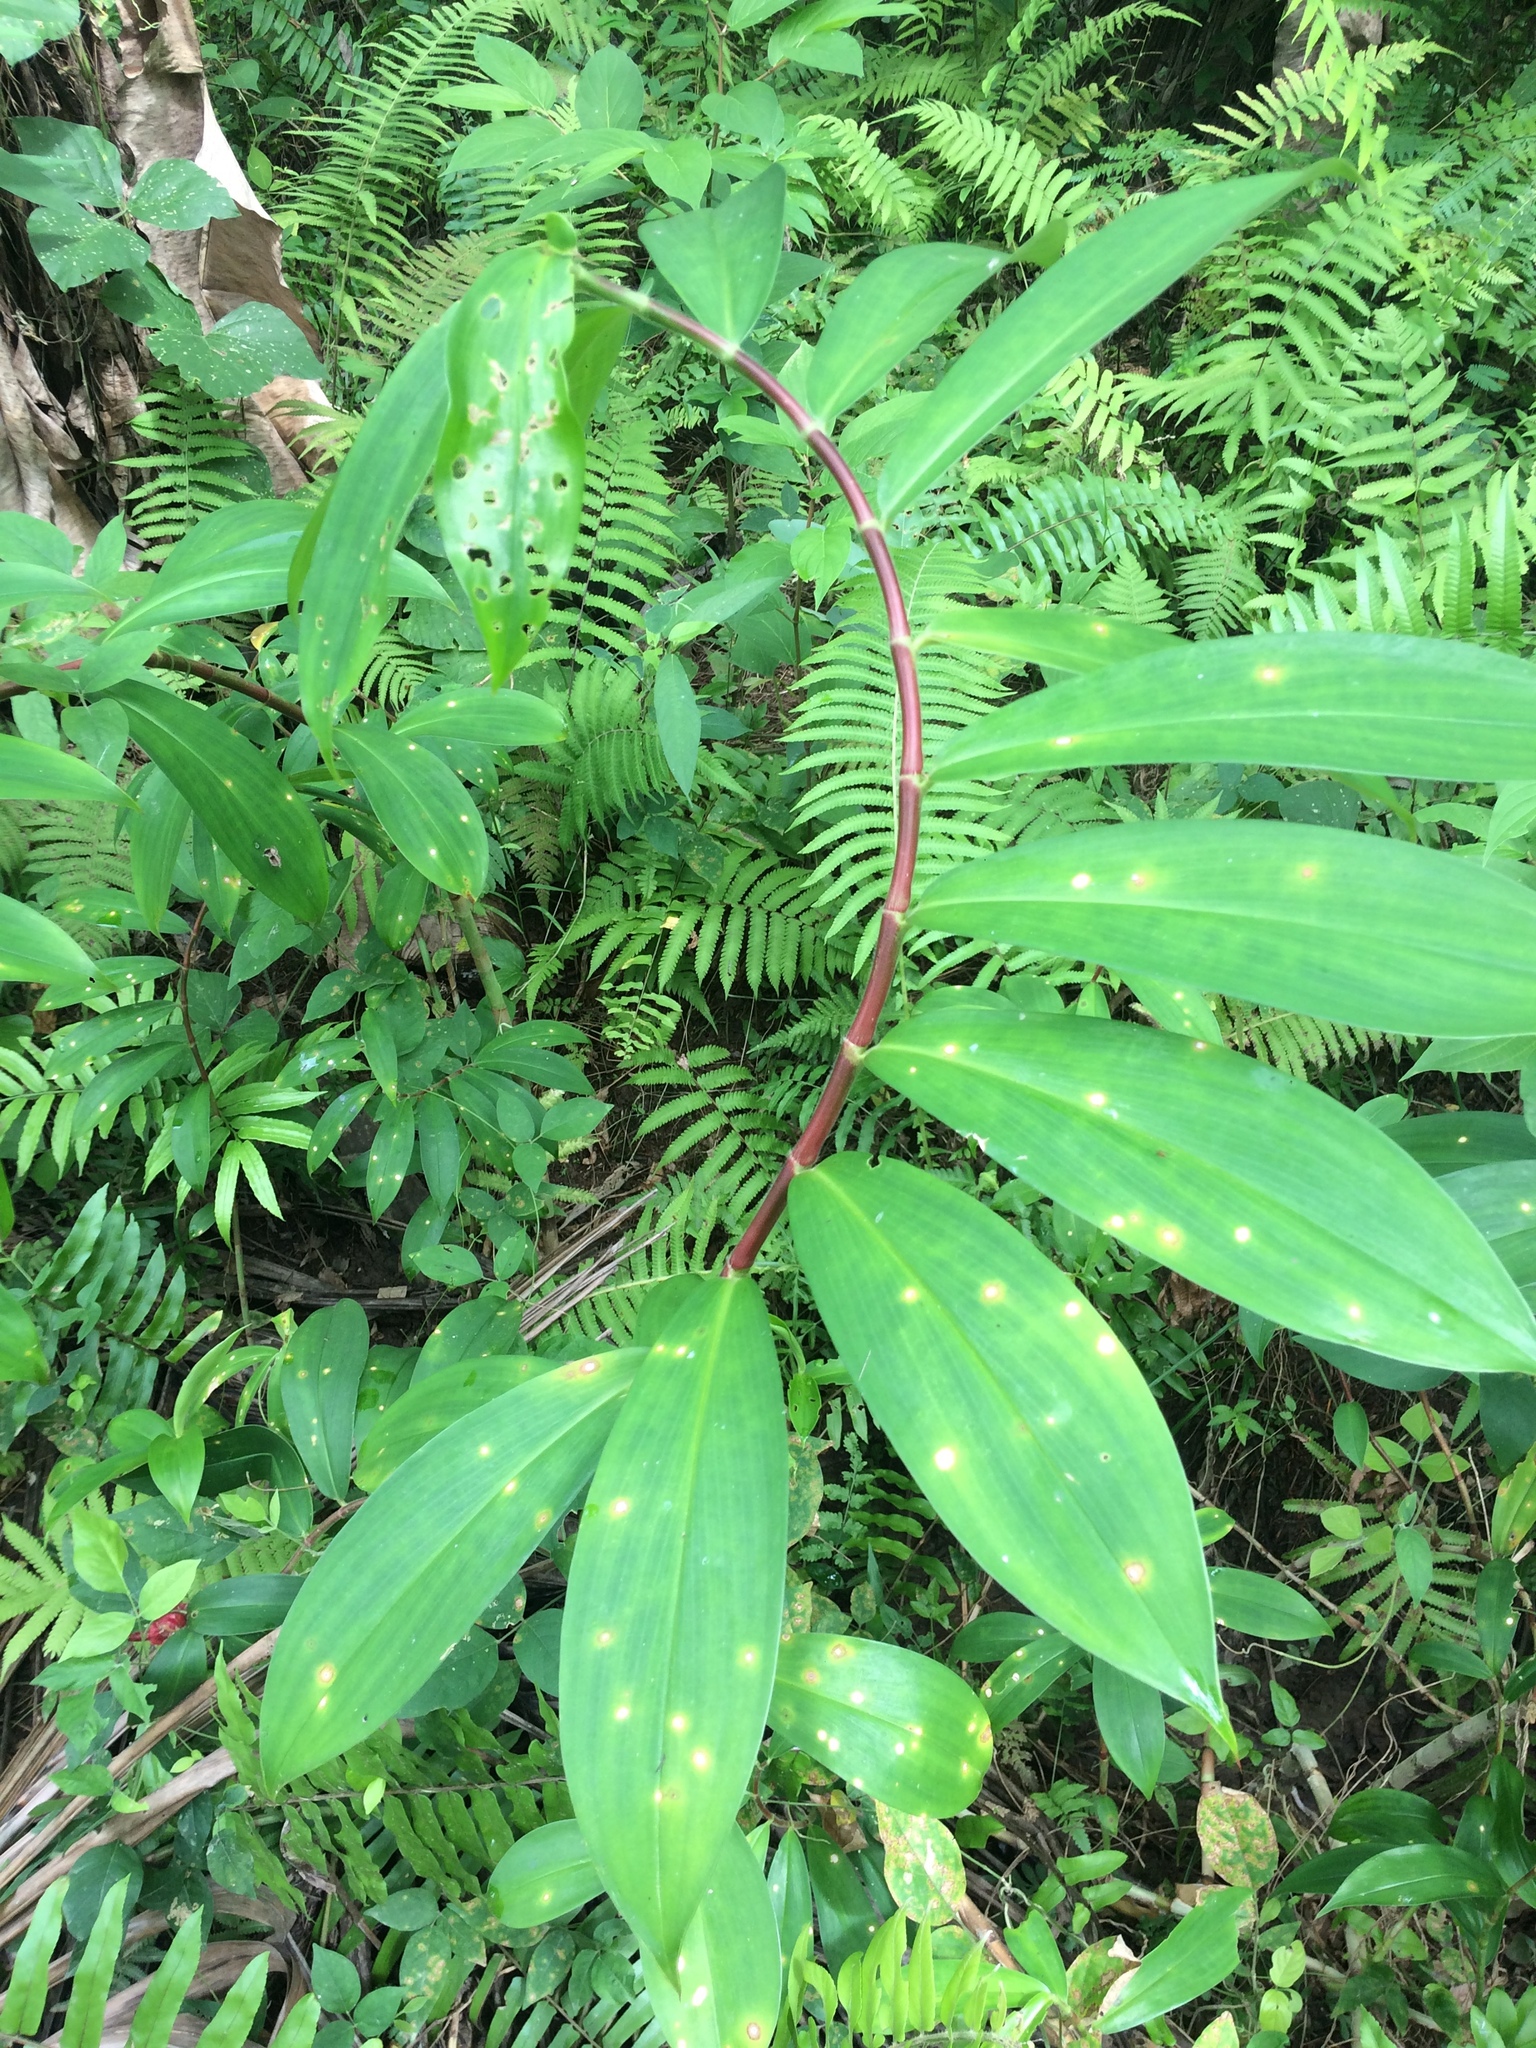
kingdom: Plantae
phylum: Tracheophyta
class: Liliopsida
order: Zingiberales
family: Costaceae
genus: Hellenia
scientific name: Hellenia speciosa
